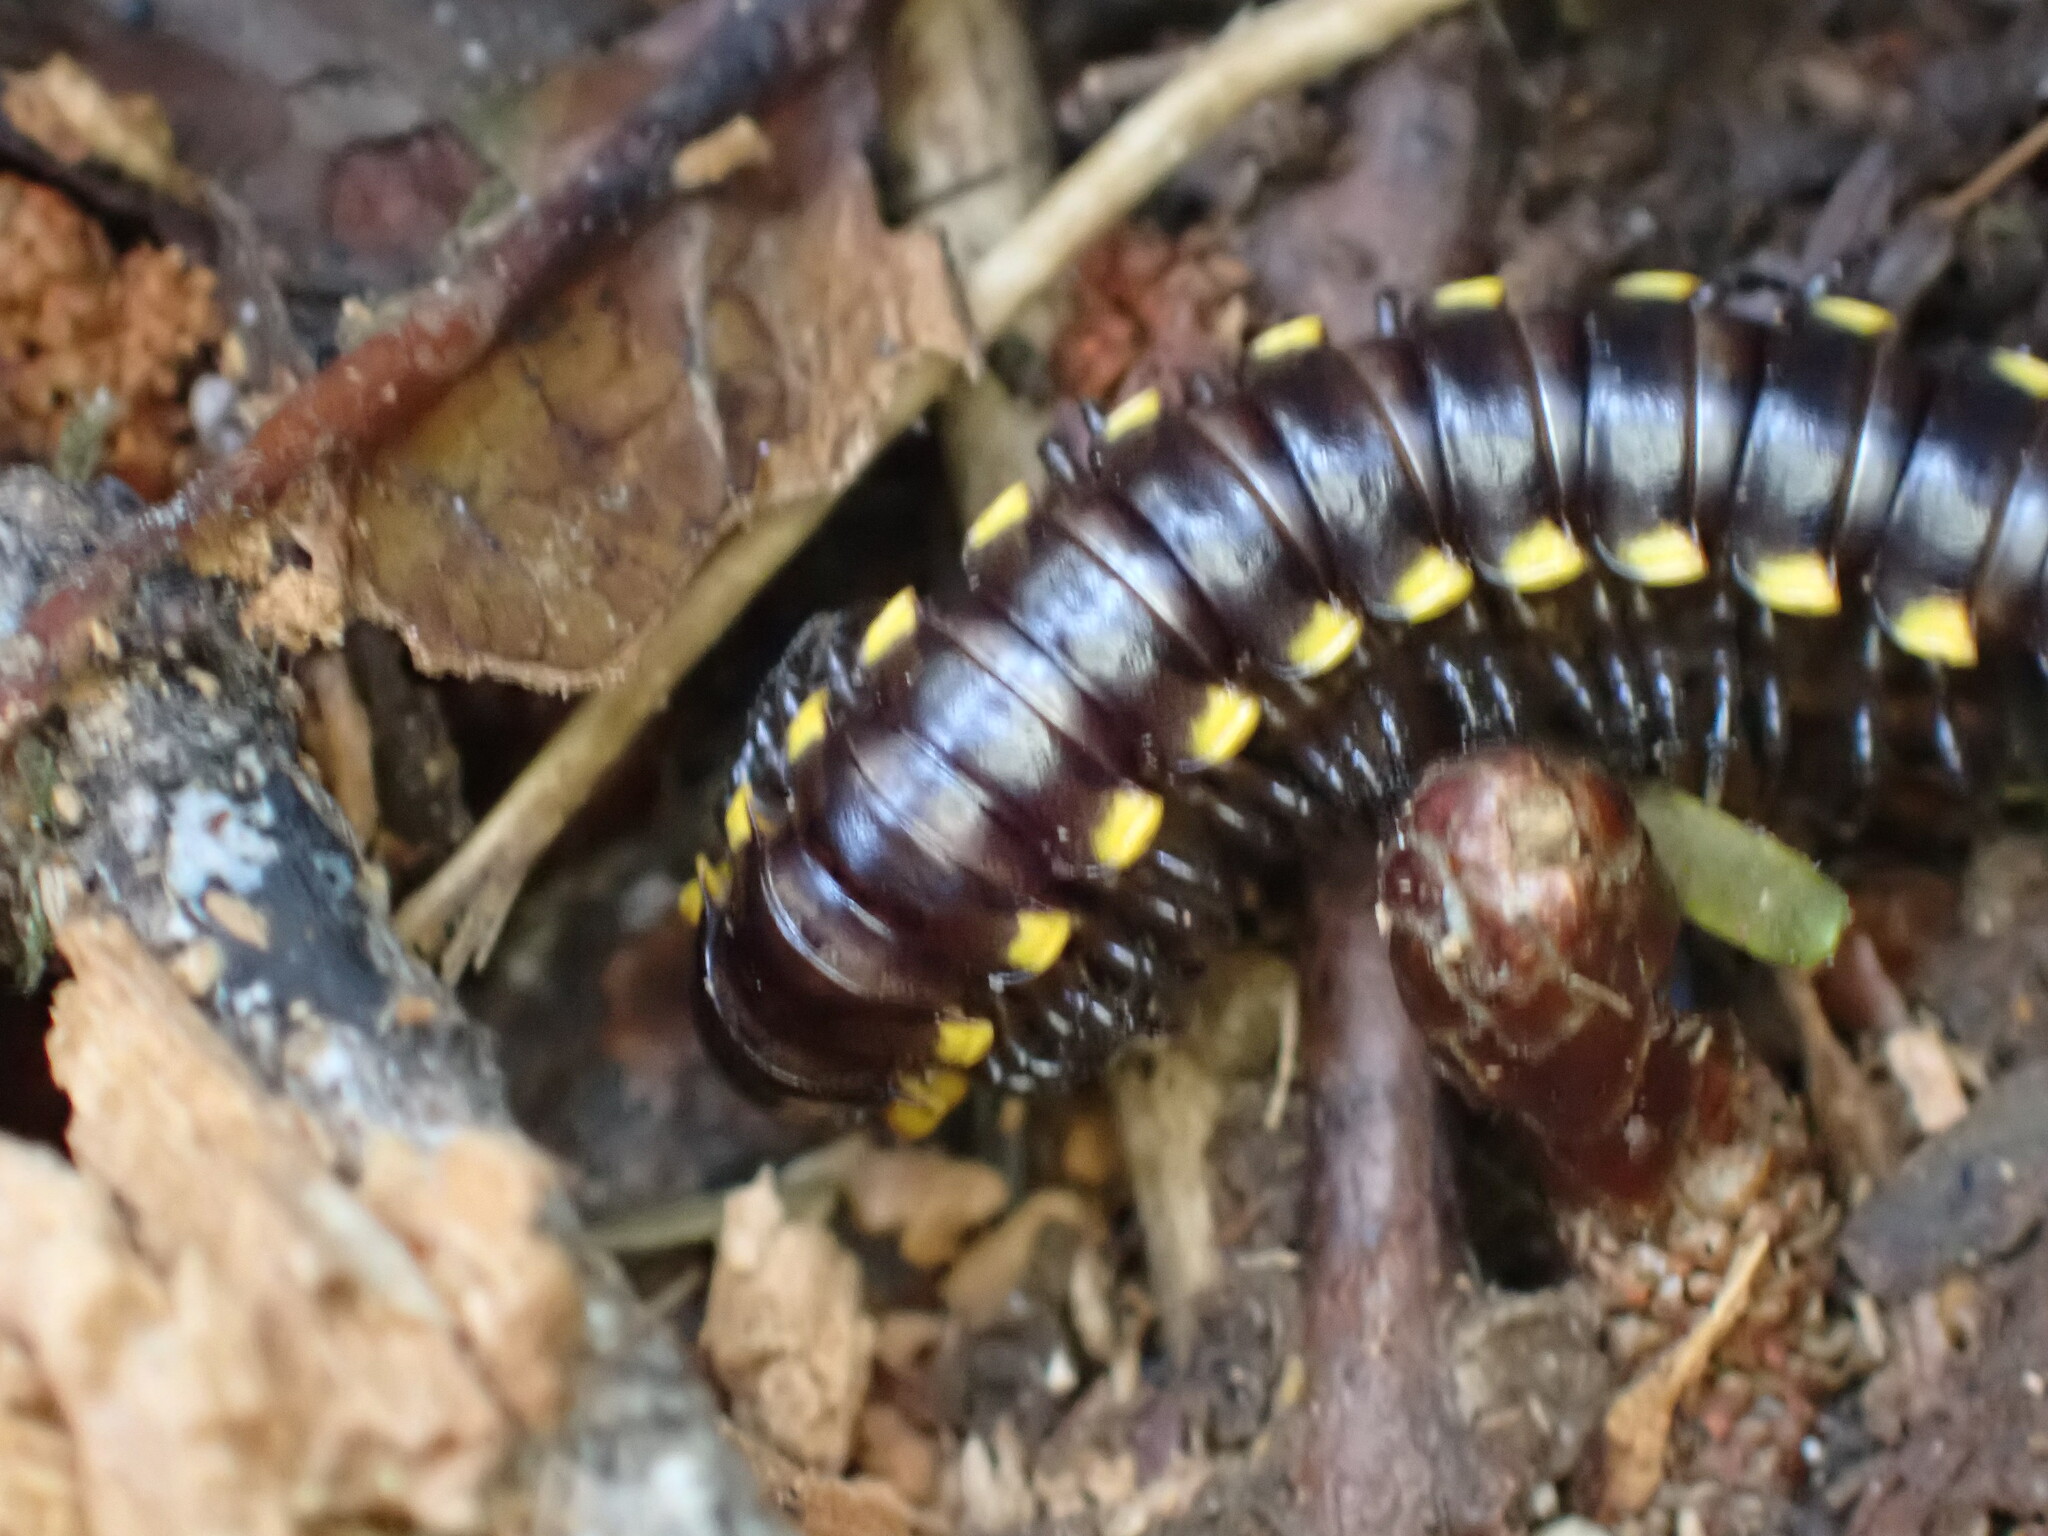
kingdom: Animalia
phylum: Arthropoda
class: Diplopoda
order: Polydesmida
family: Xystodesmidae
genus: Harpaphe
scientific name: Harpaphe haydeniana
